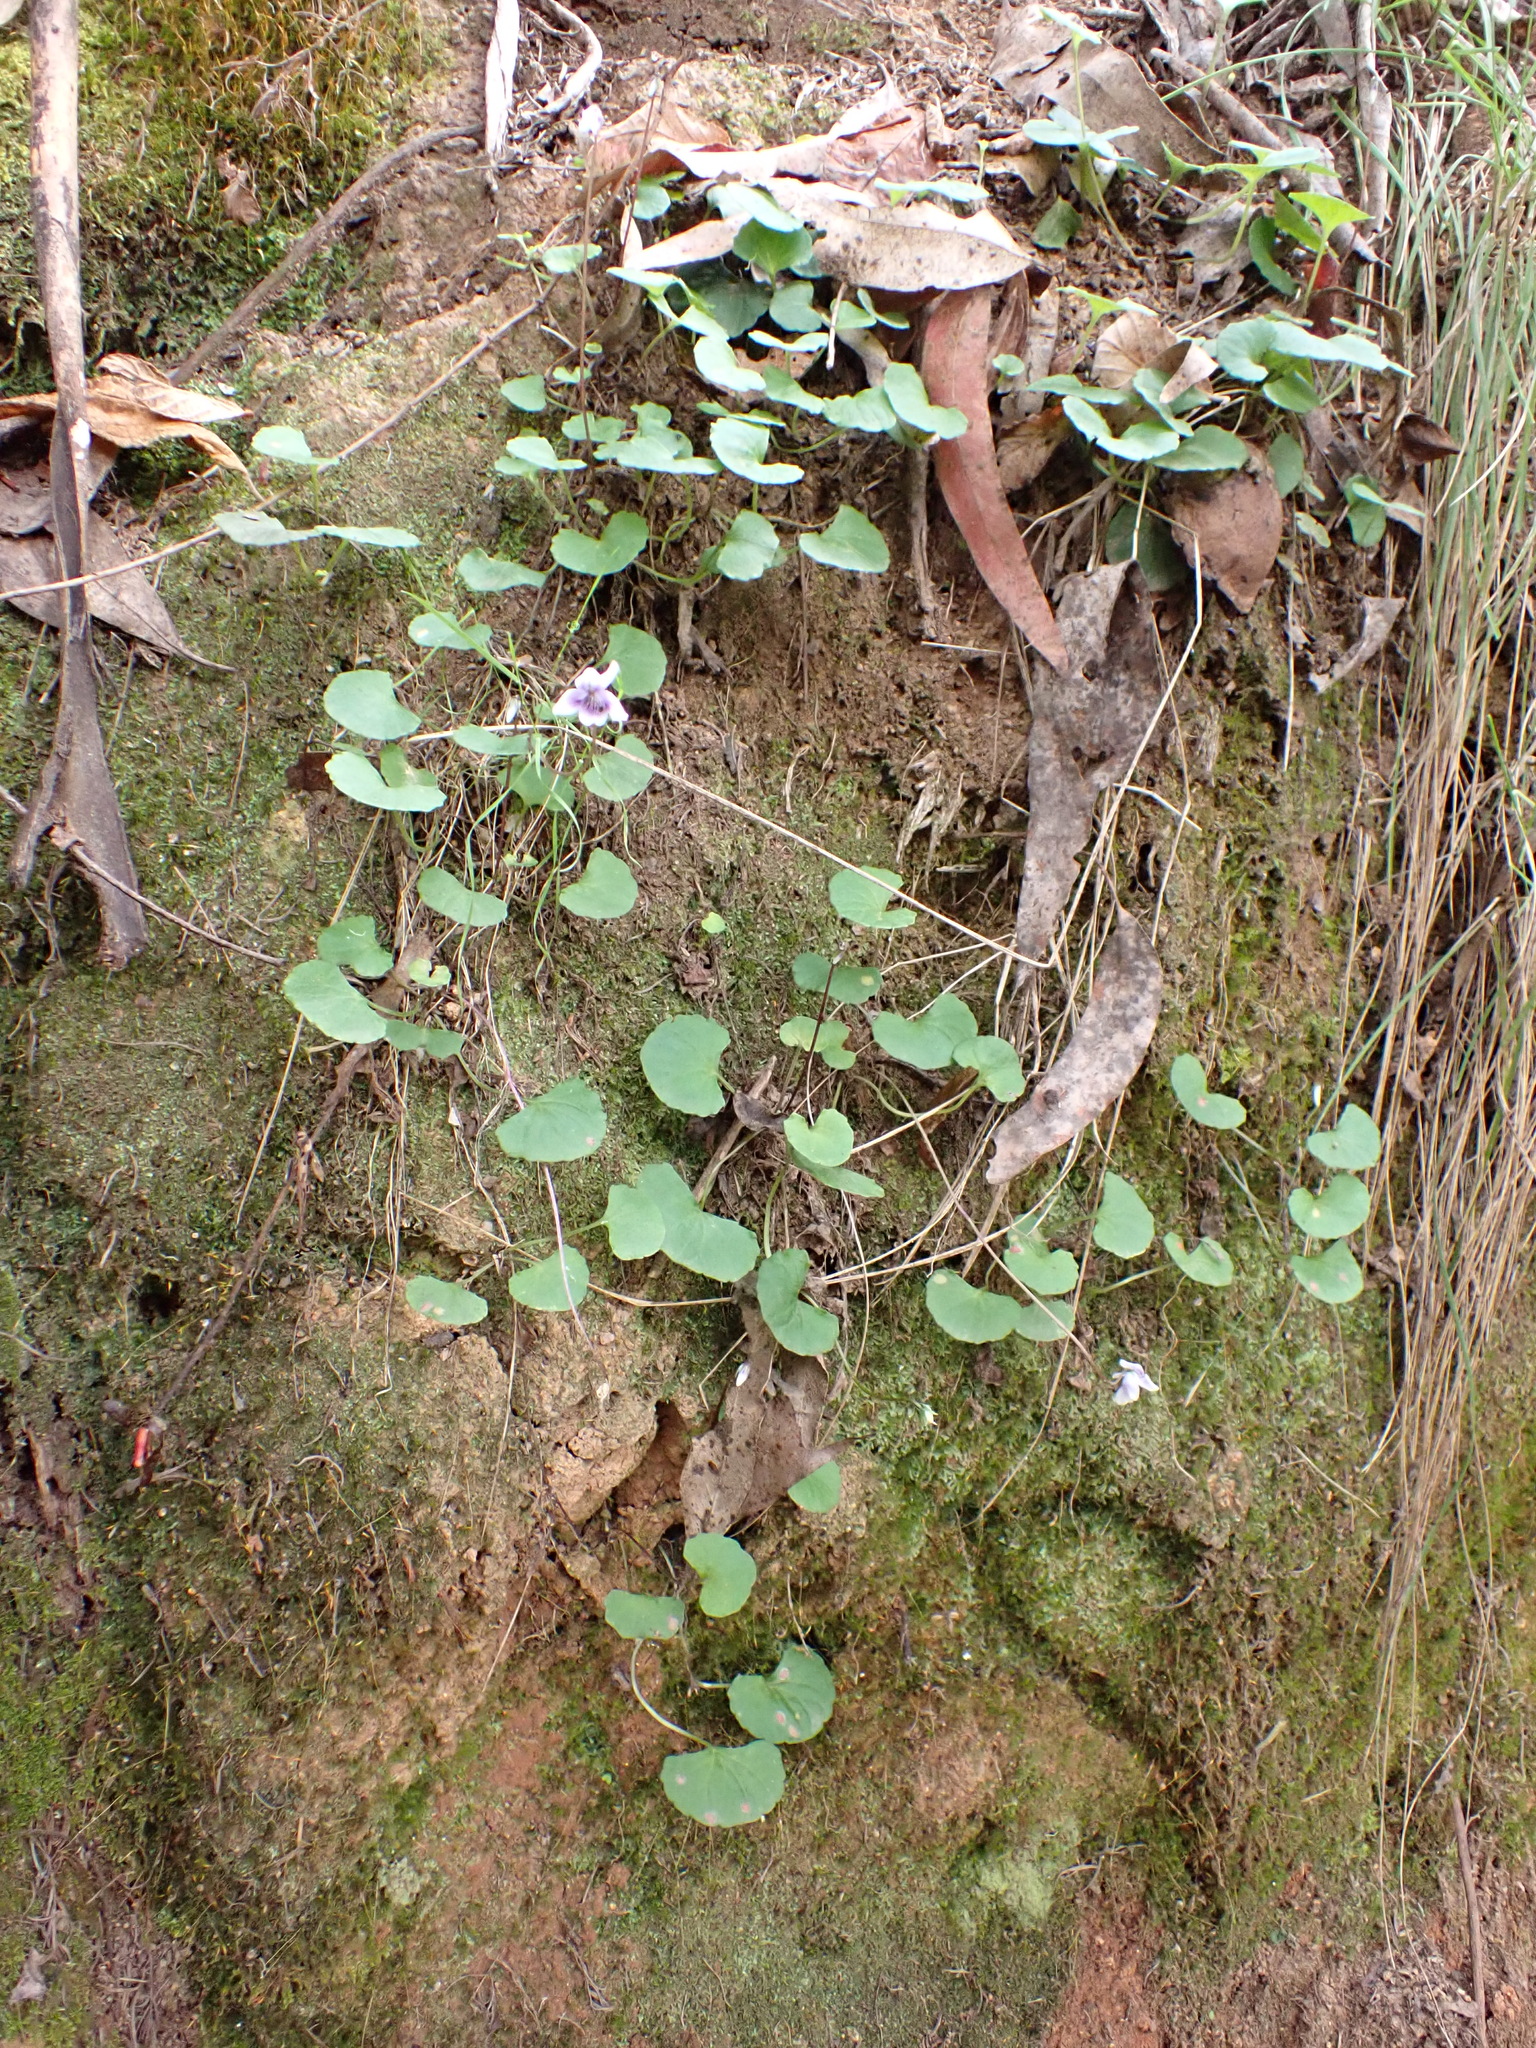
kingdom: Plantae
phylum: Tracheophyta
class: Magnoliopsida
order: Malpighiales
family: Violaceae
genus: Viola
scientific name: Viola hederacea
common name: Australian violet
